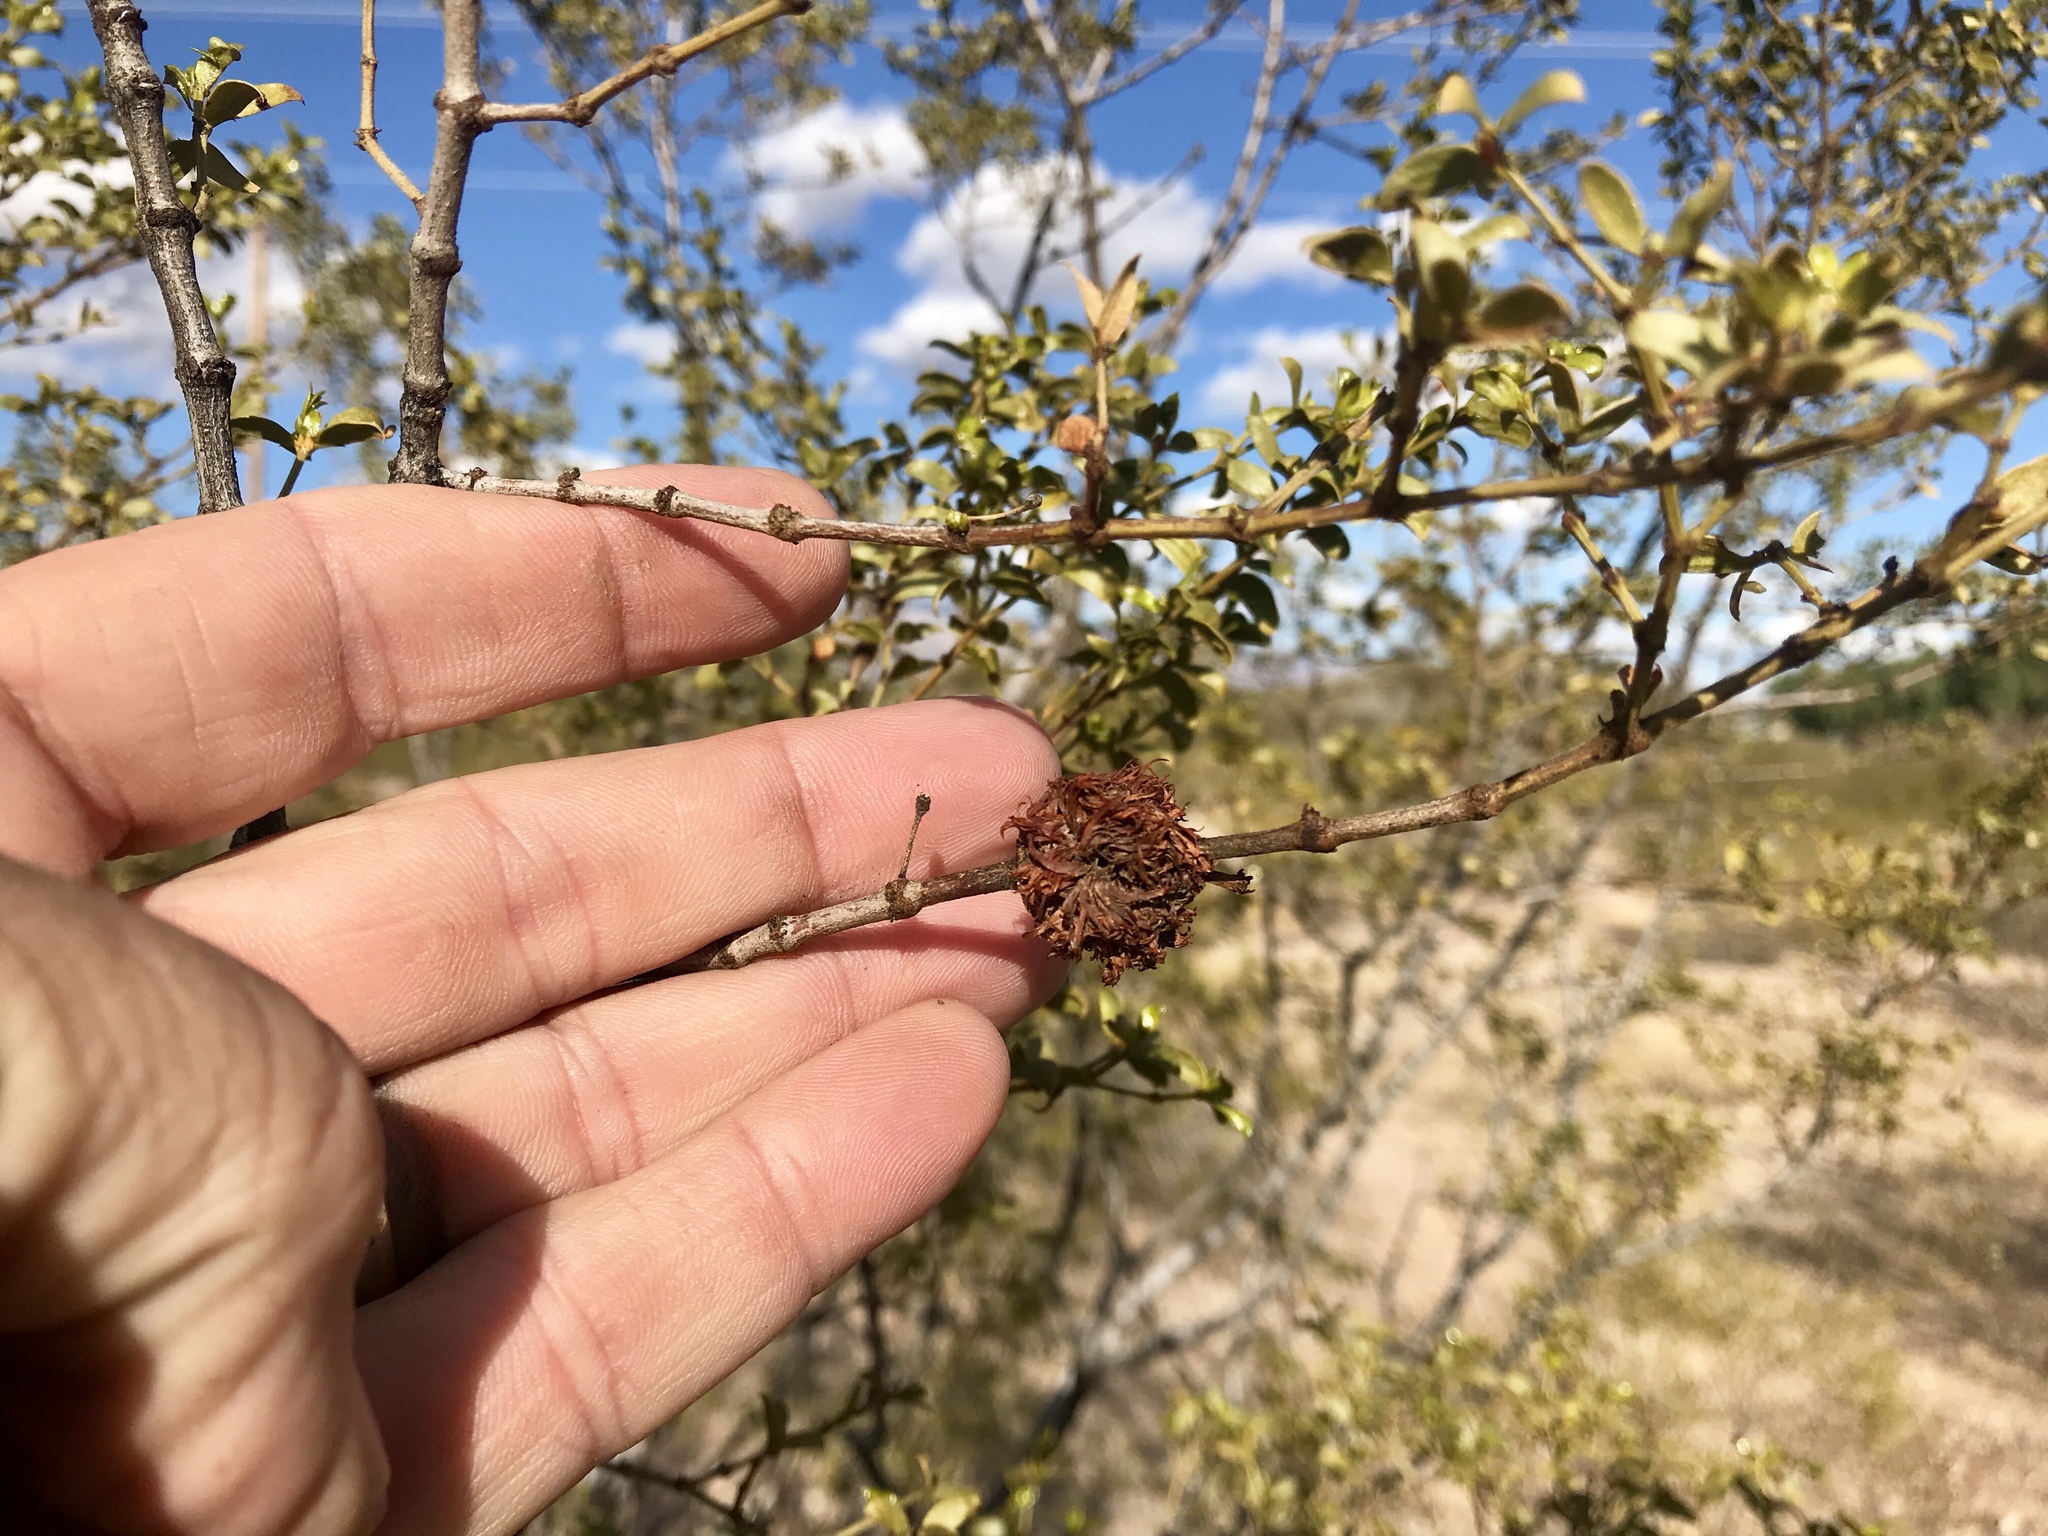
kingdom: Animalia
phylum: Arthropoda
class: Insecta
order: Diptera
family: Cecidomyiidae
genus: Asphondylia
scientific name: Asphondylia auripila
